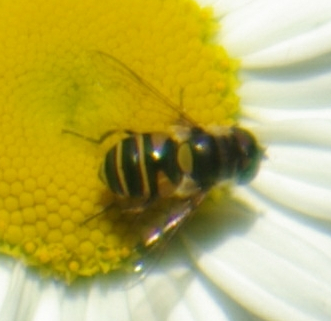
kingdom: Animalia
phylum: Arthropoda
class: Insecta
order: Diptera
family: Syrphidae
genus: Eristalis
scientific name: Eristalis transversa
